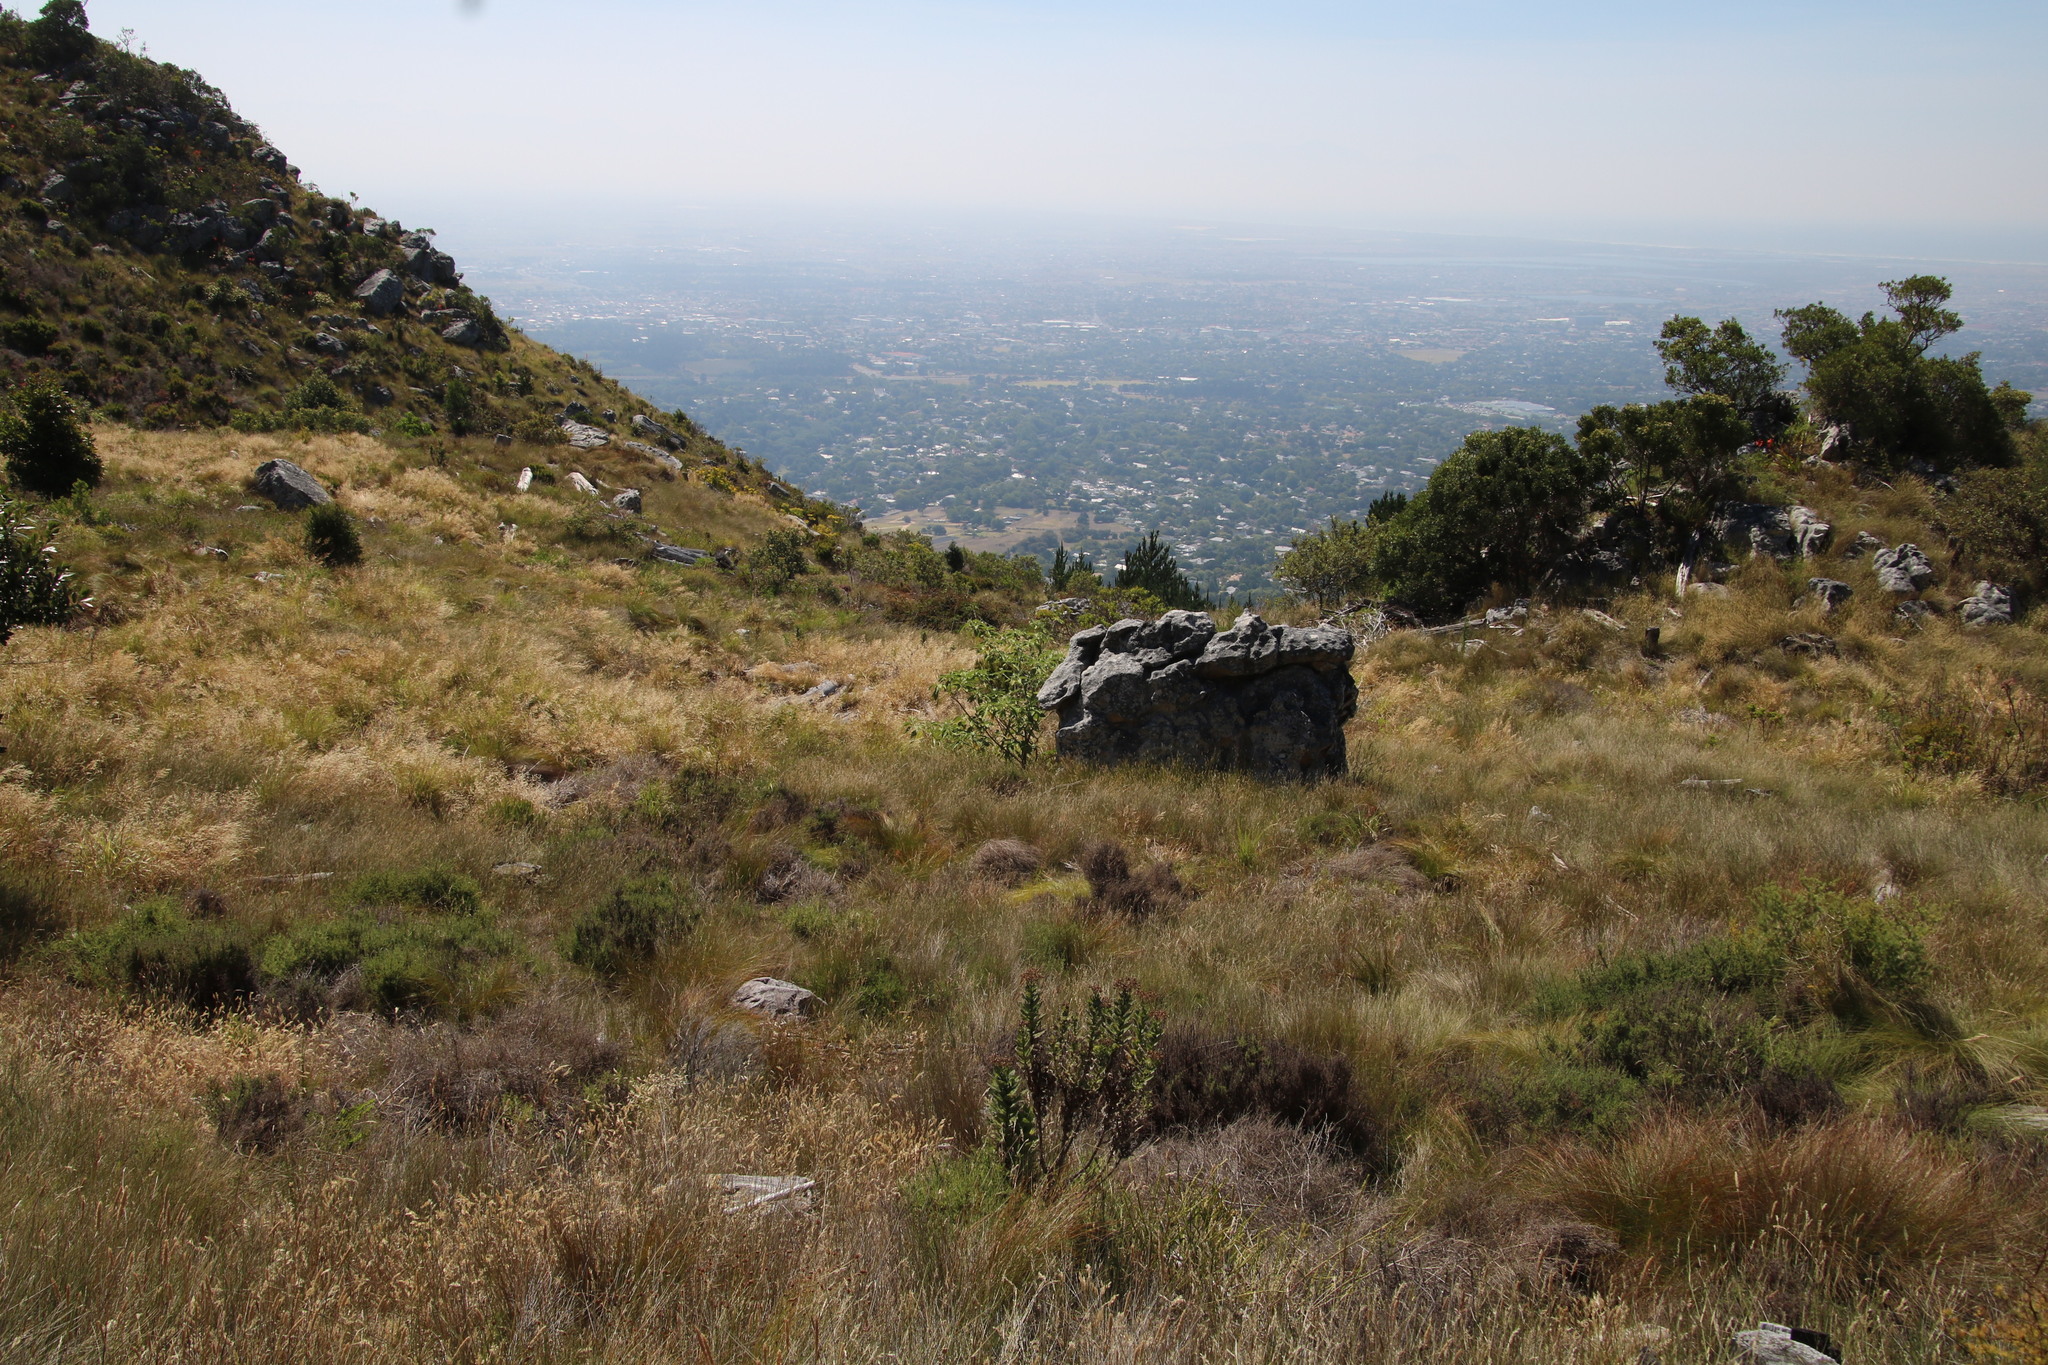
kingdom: Plantae
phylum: Tracheophyta
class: Magnoliopsida
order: Solanales
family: Solanaceae
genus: Solanum
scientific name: Solanum mauritianum
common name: Earleaf nightshade
